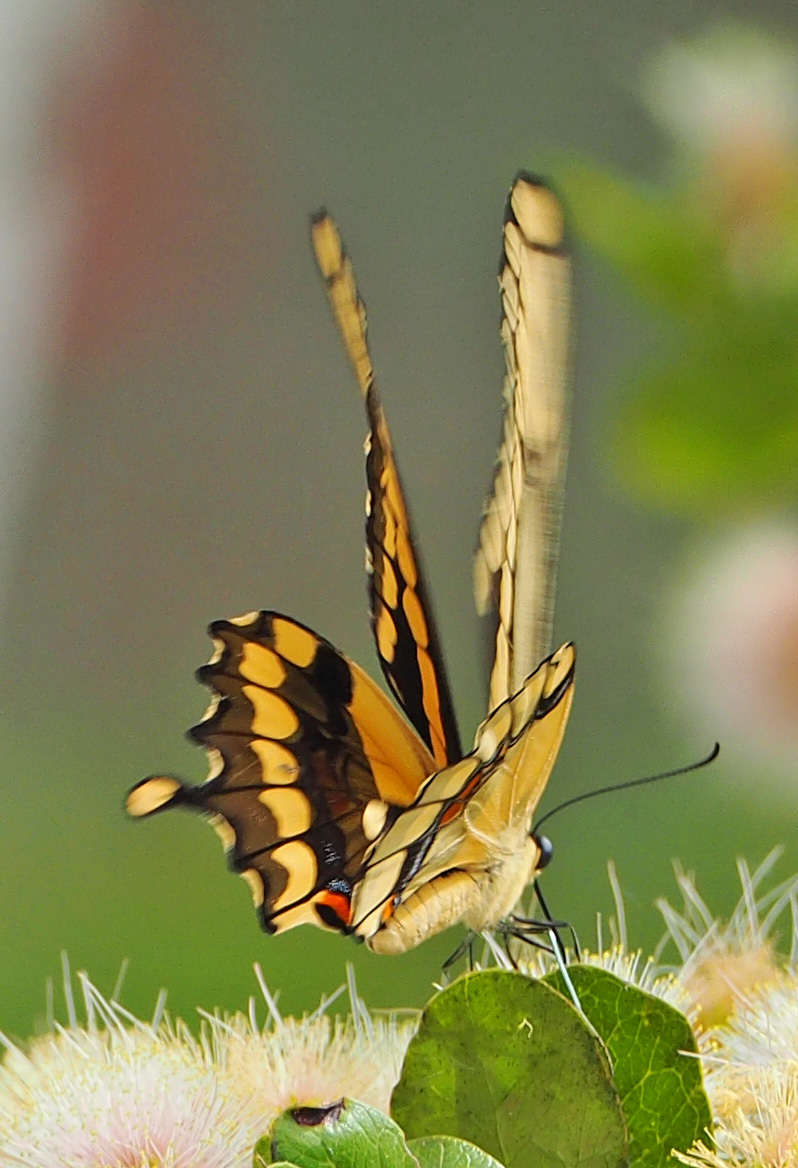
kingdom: Animalia
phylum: Arthropoda
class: Insecta
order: Lepidoptera
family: Papilionidae
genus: Papilio
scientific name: Papilio cresphontes
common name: Giant swallowtail
